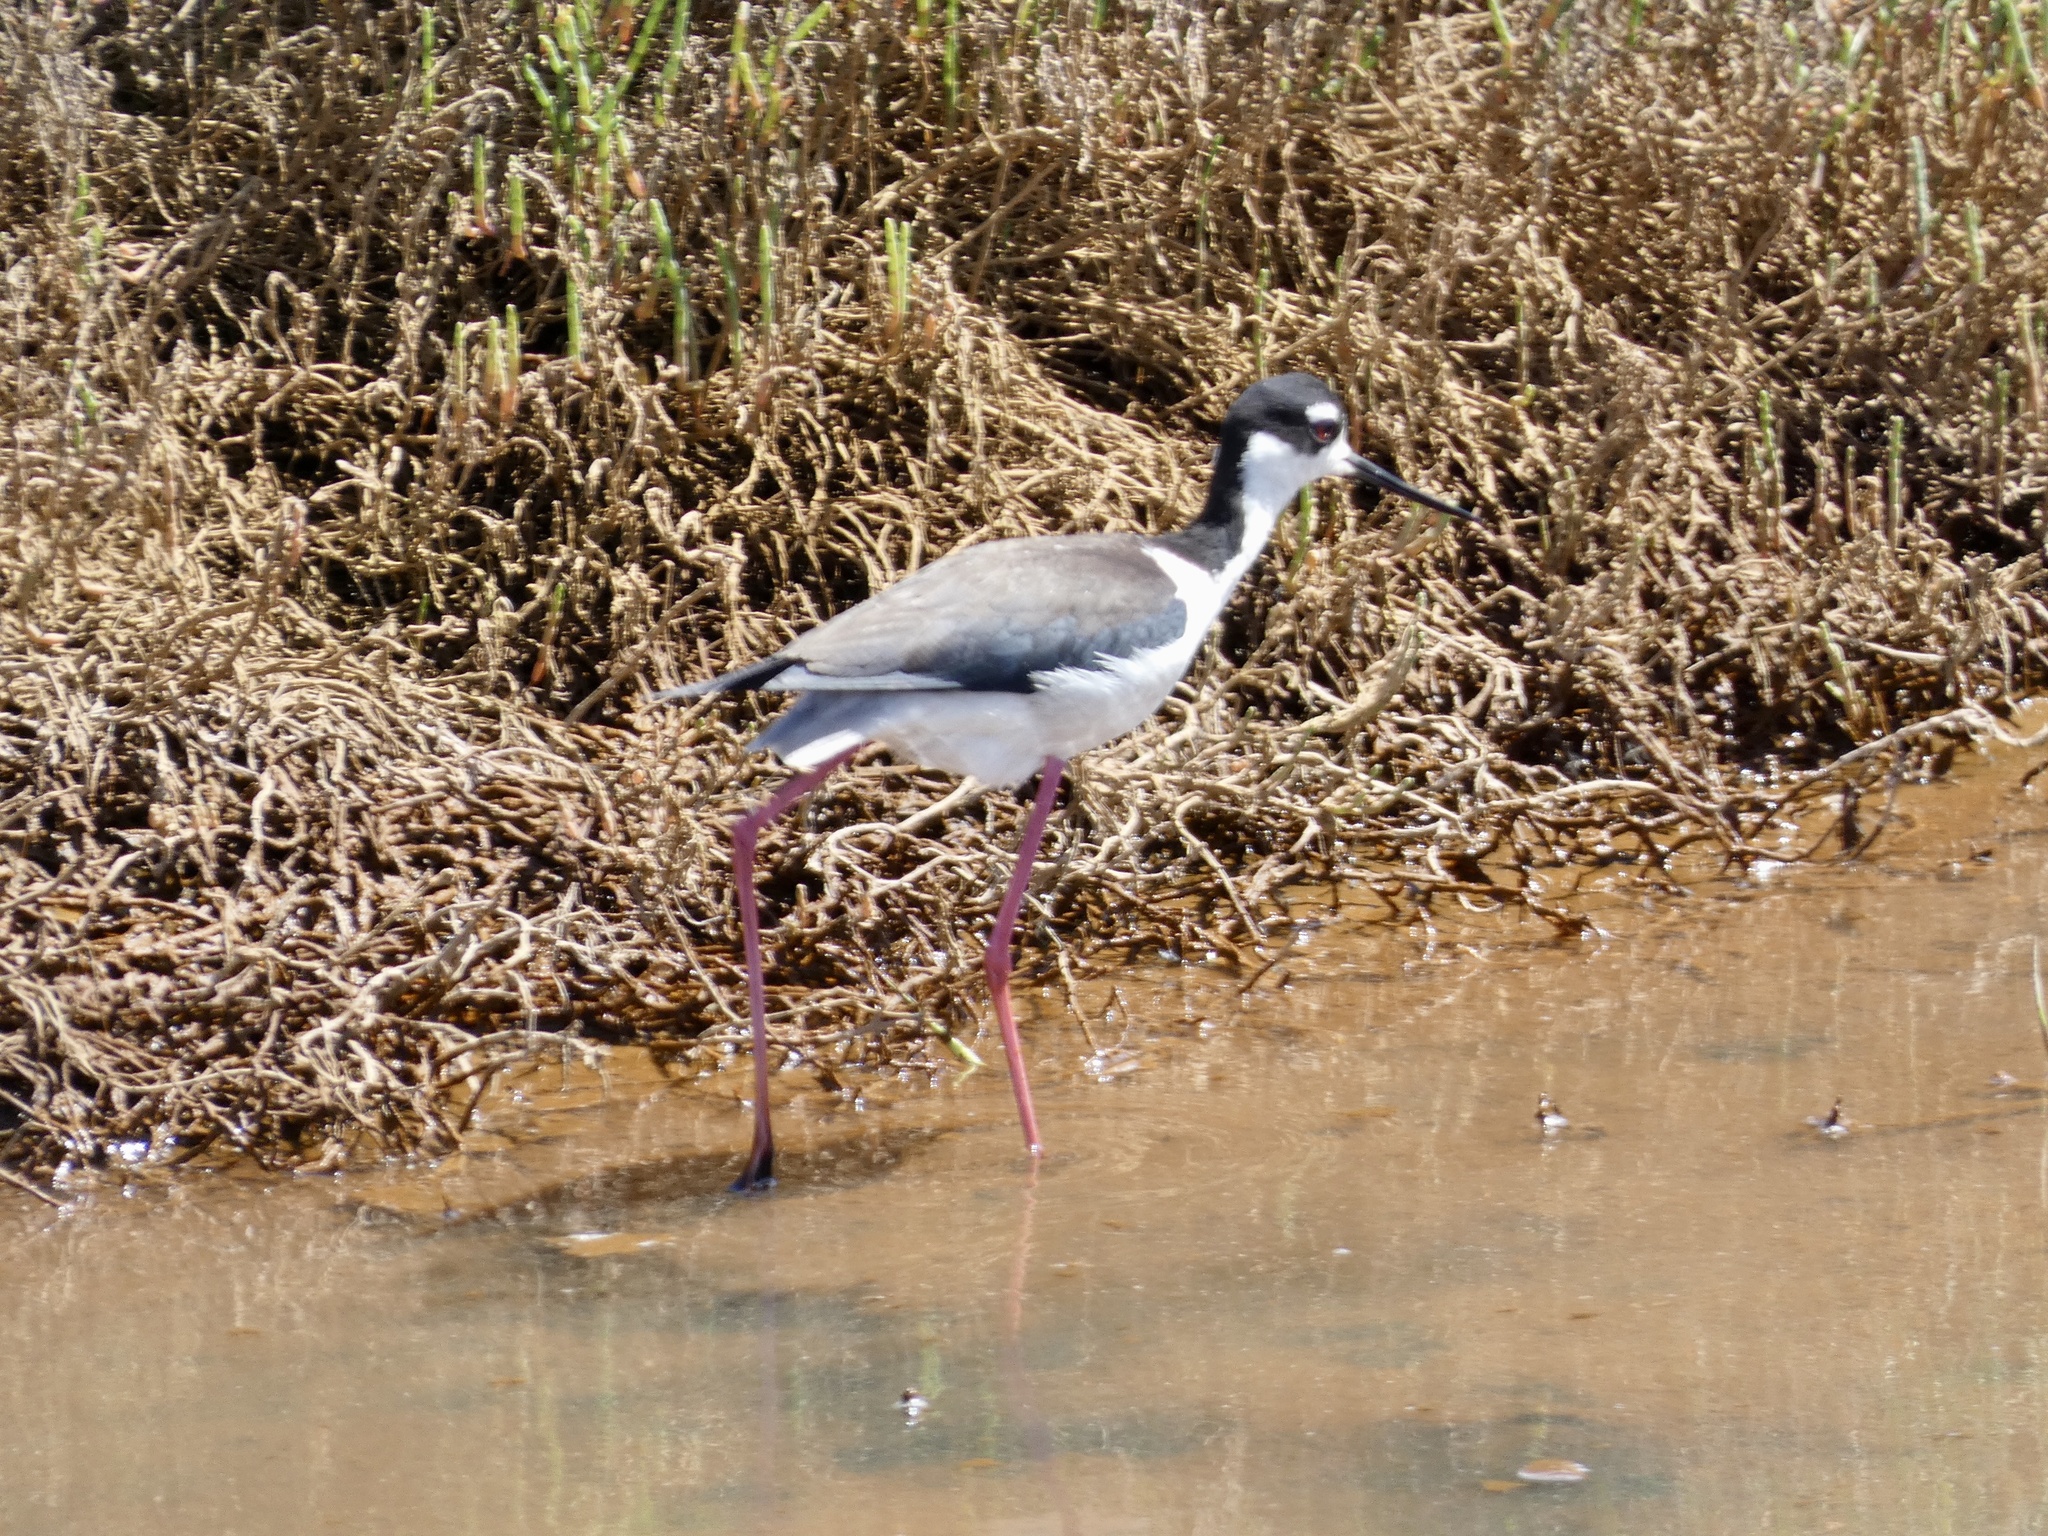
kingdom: Animalia
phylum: Chordata
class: Aves
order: Charadriiformes
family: Recurvirostridae
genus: Himantopus
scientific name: Himantopus mexicanus
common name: Black-necked stilt
